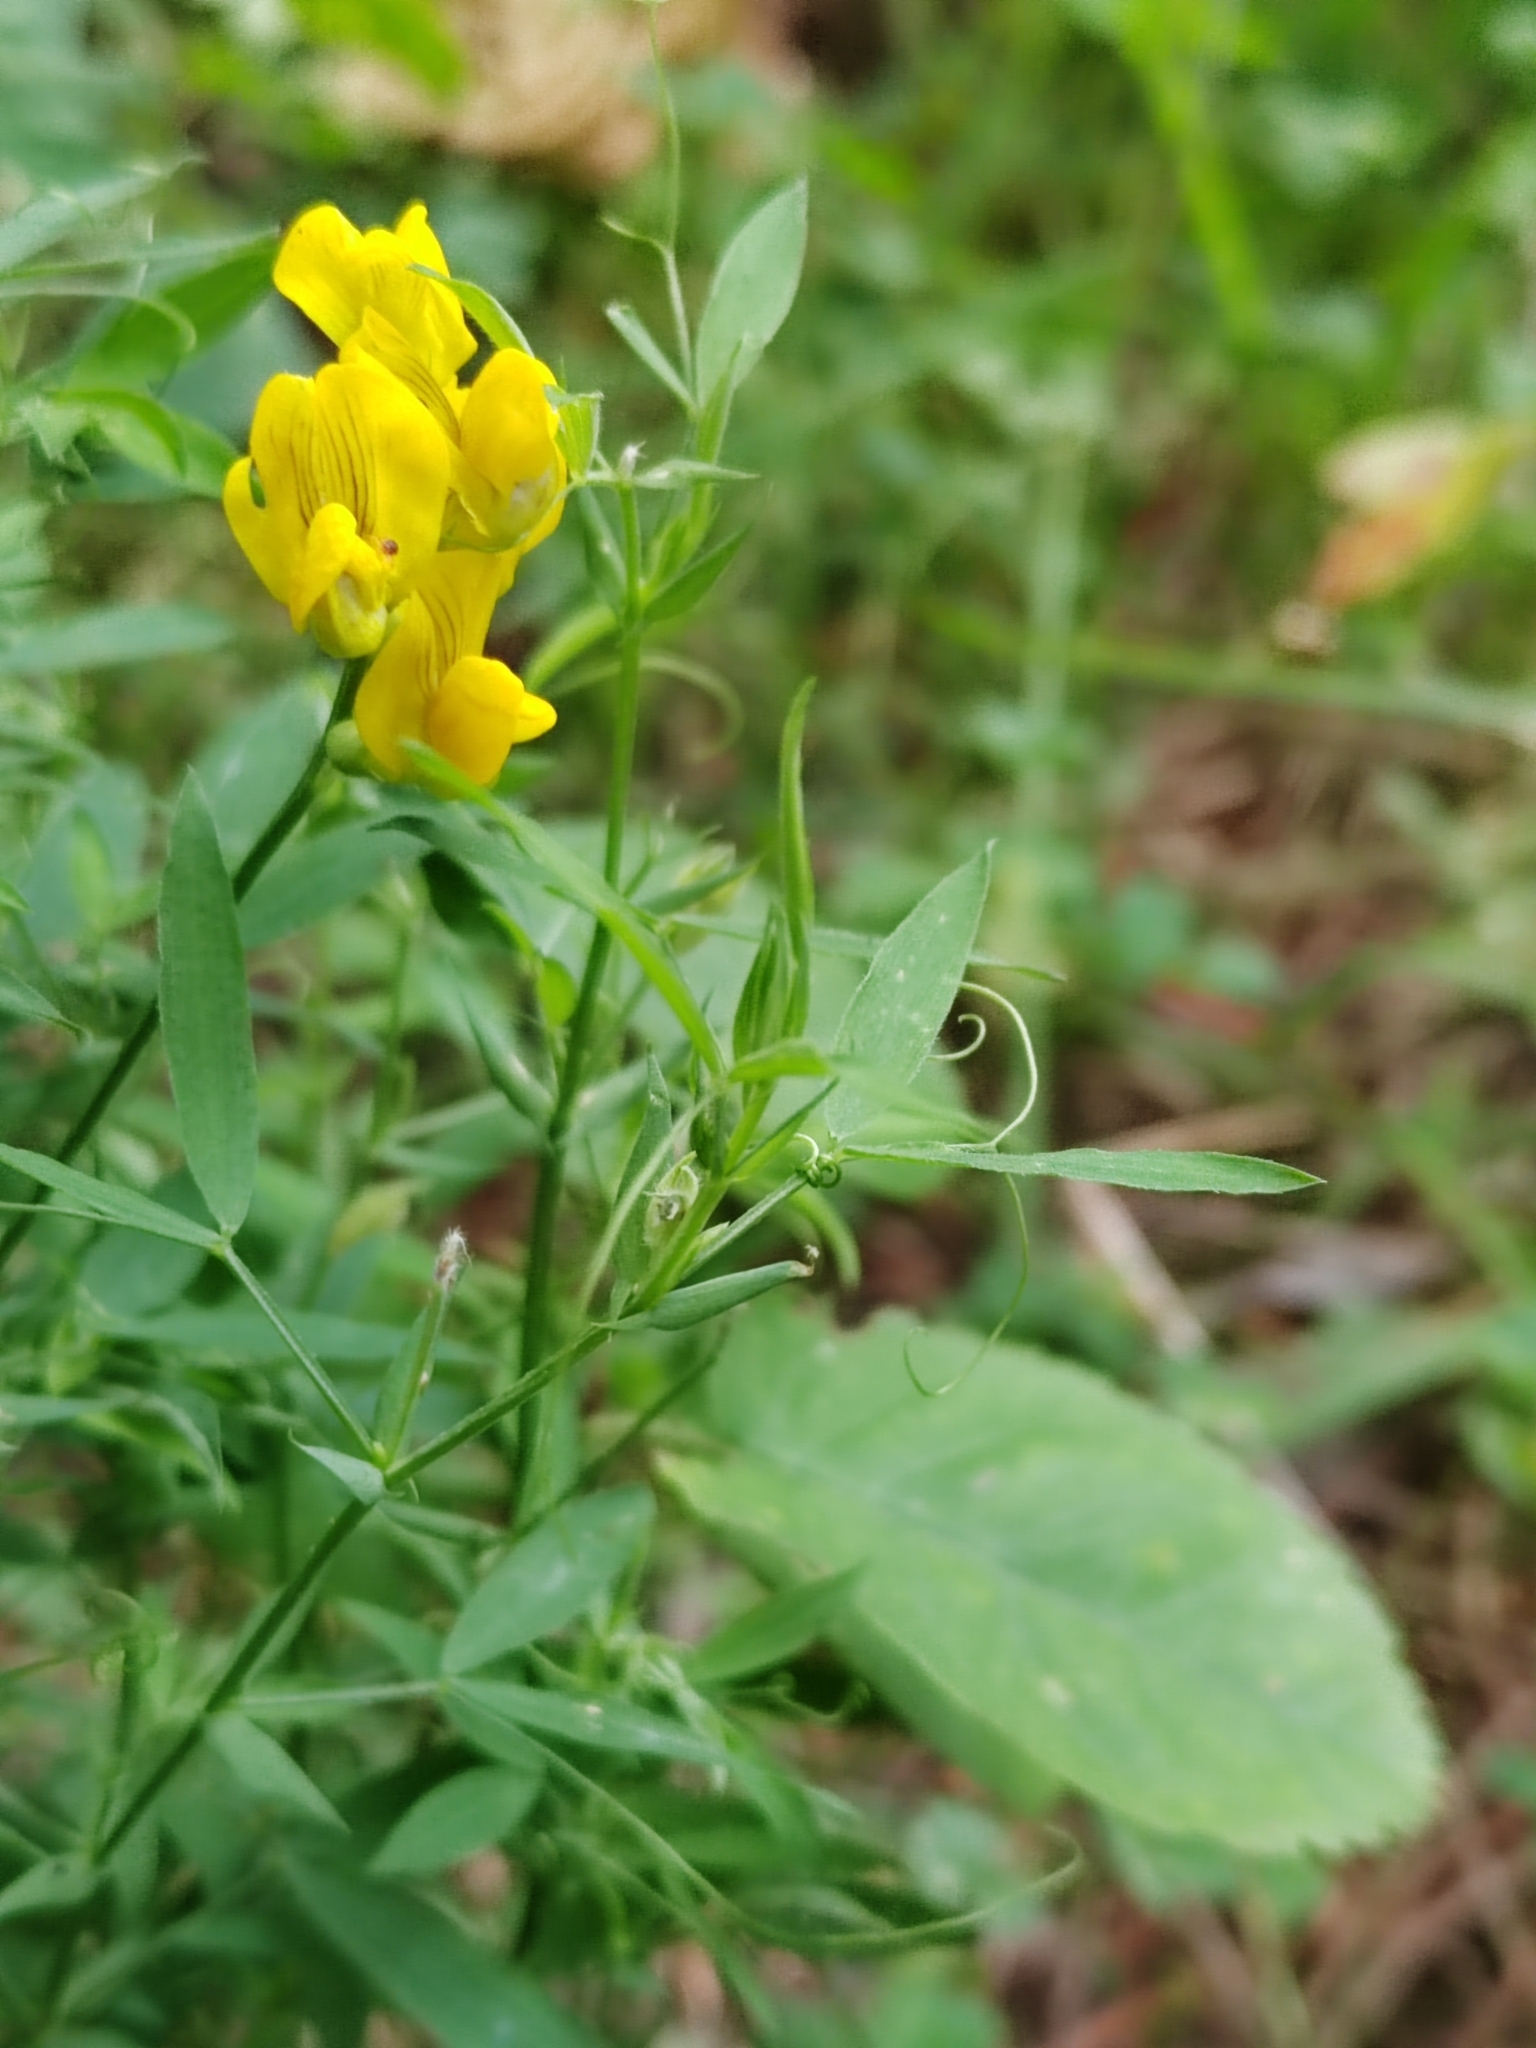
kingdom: Plantae
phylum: Tracheophyta
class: Magnoliopsida
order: Fabales
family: Fabaceae
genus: Lathyrus
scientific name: Lathyrus pratensis
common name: Meadow vetchling
